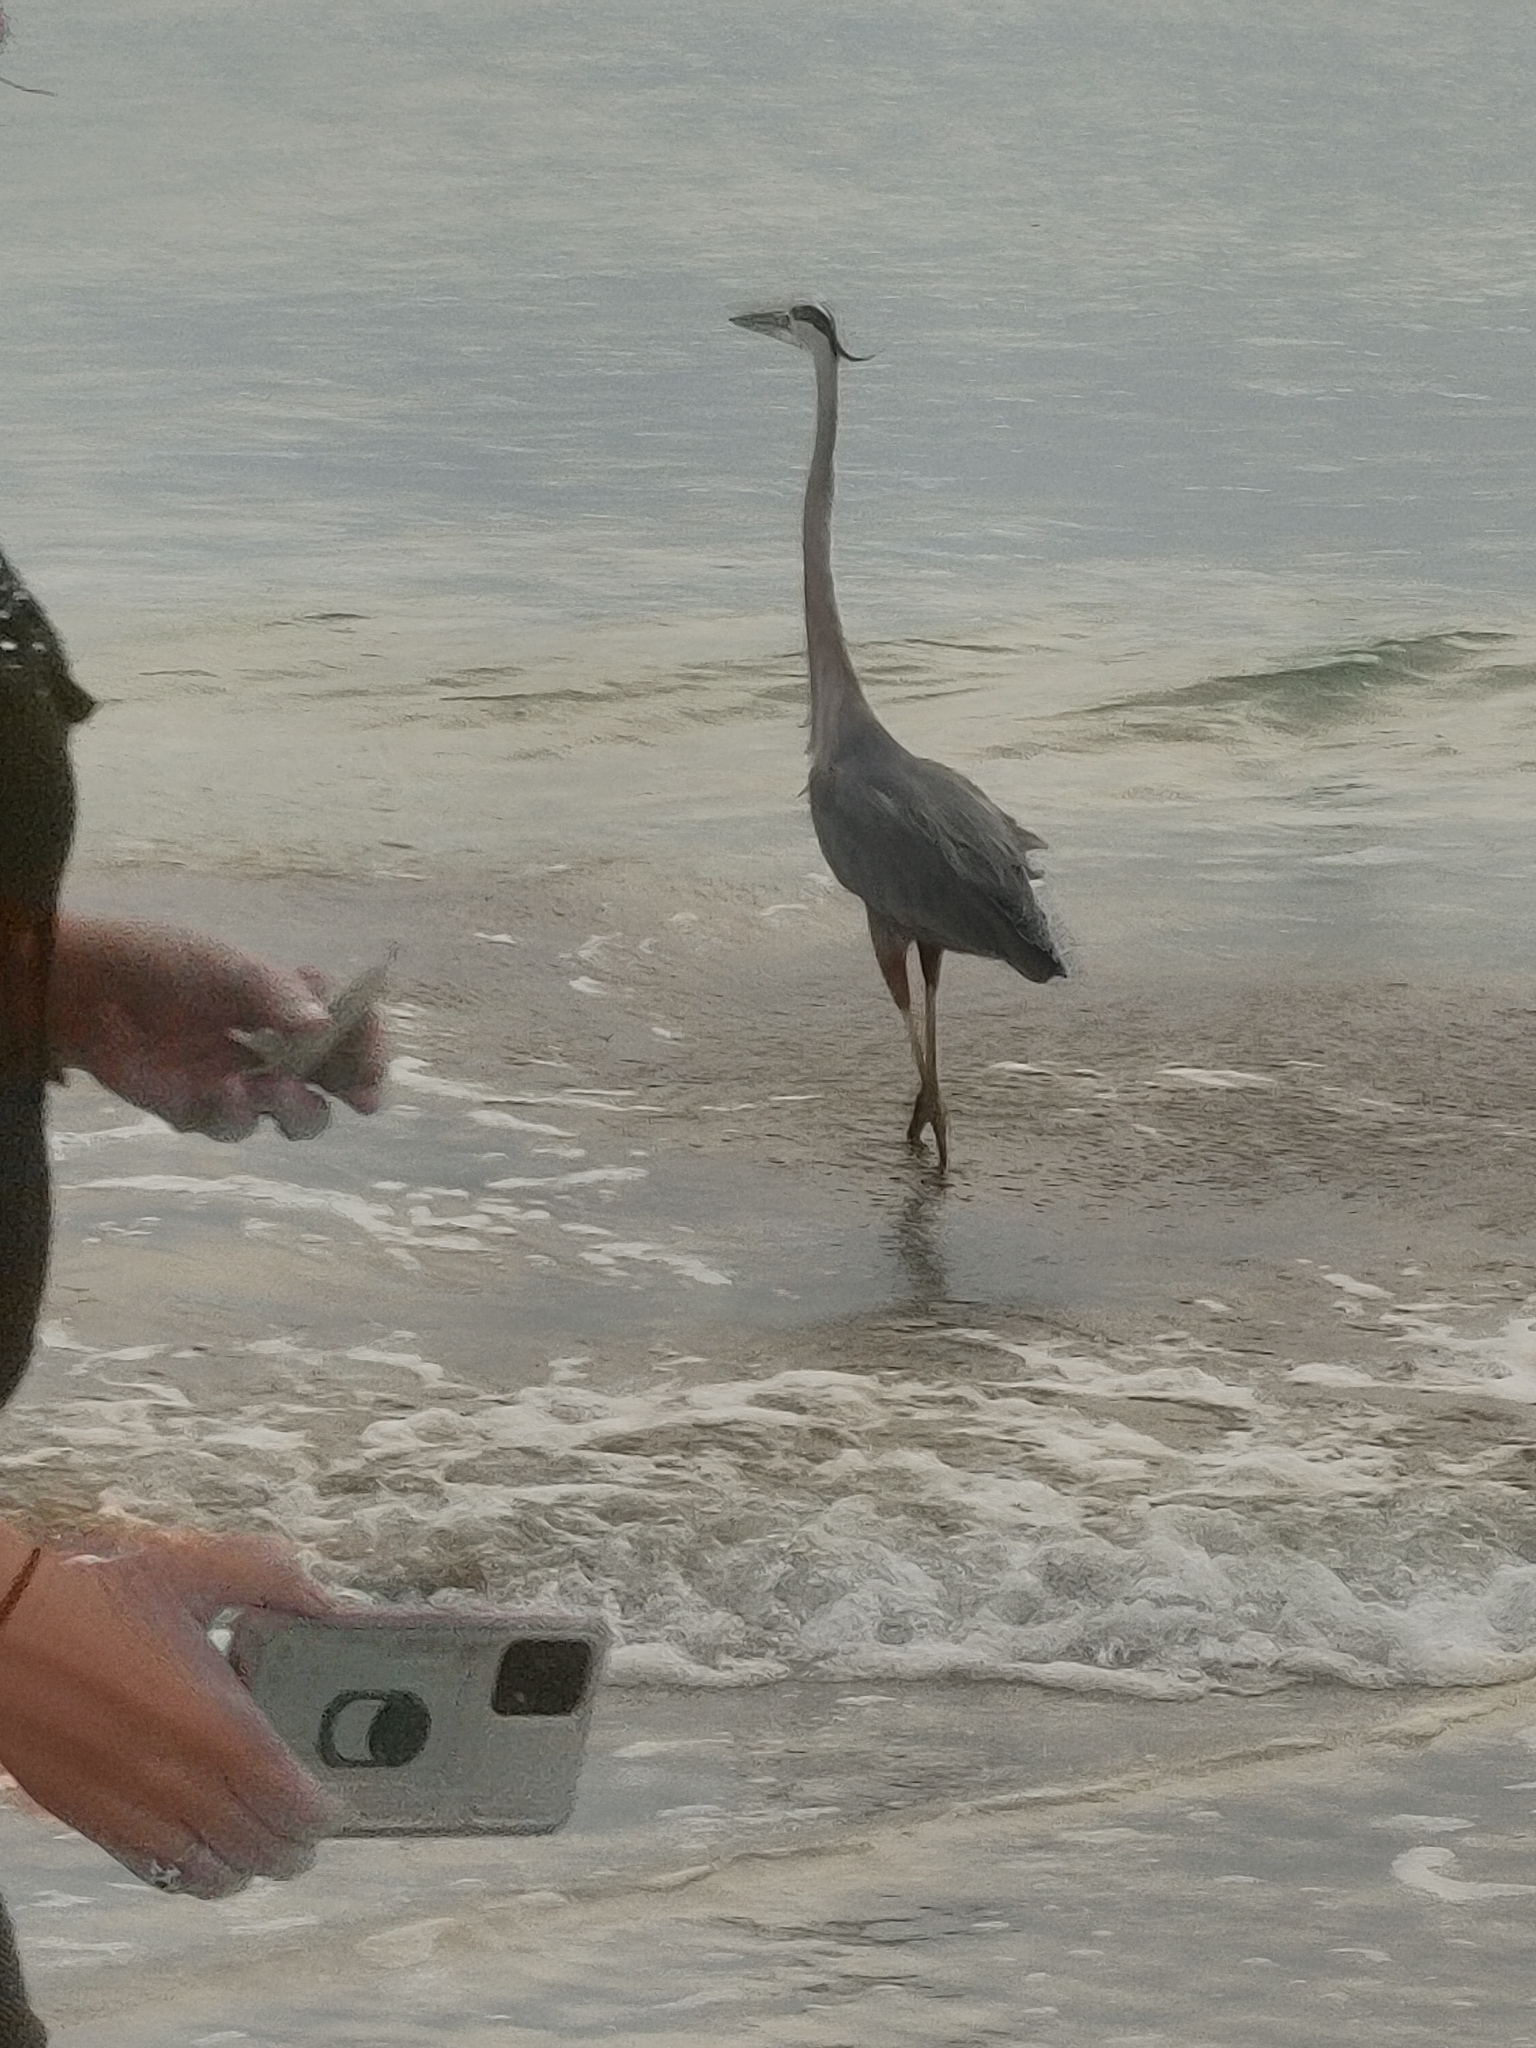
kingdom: Animalia
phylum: Chordata
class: Aves
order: Pelecaniformes
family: Ardeidae
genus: Ardea
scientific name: Ardea herodias
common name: Great blue heron
